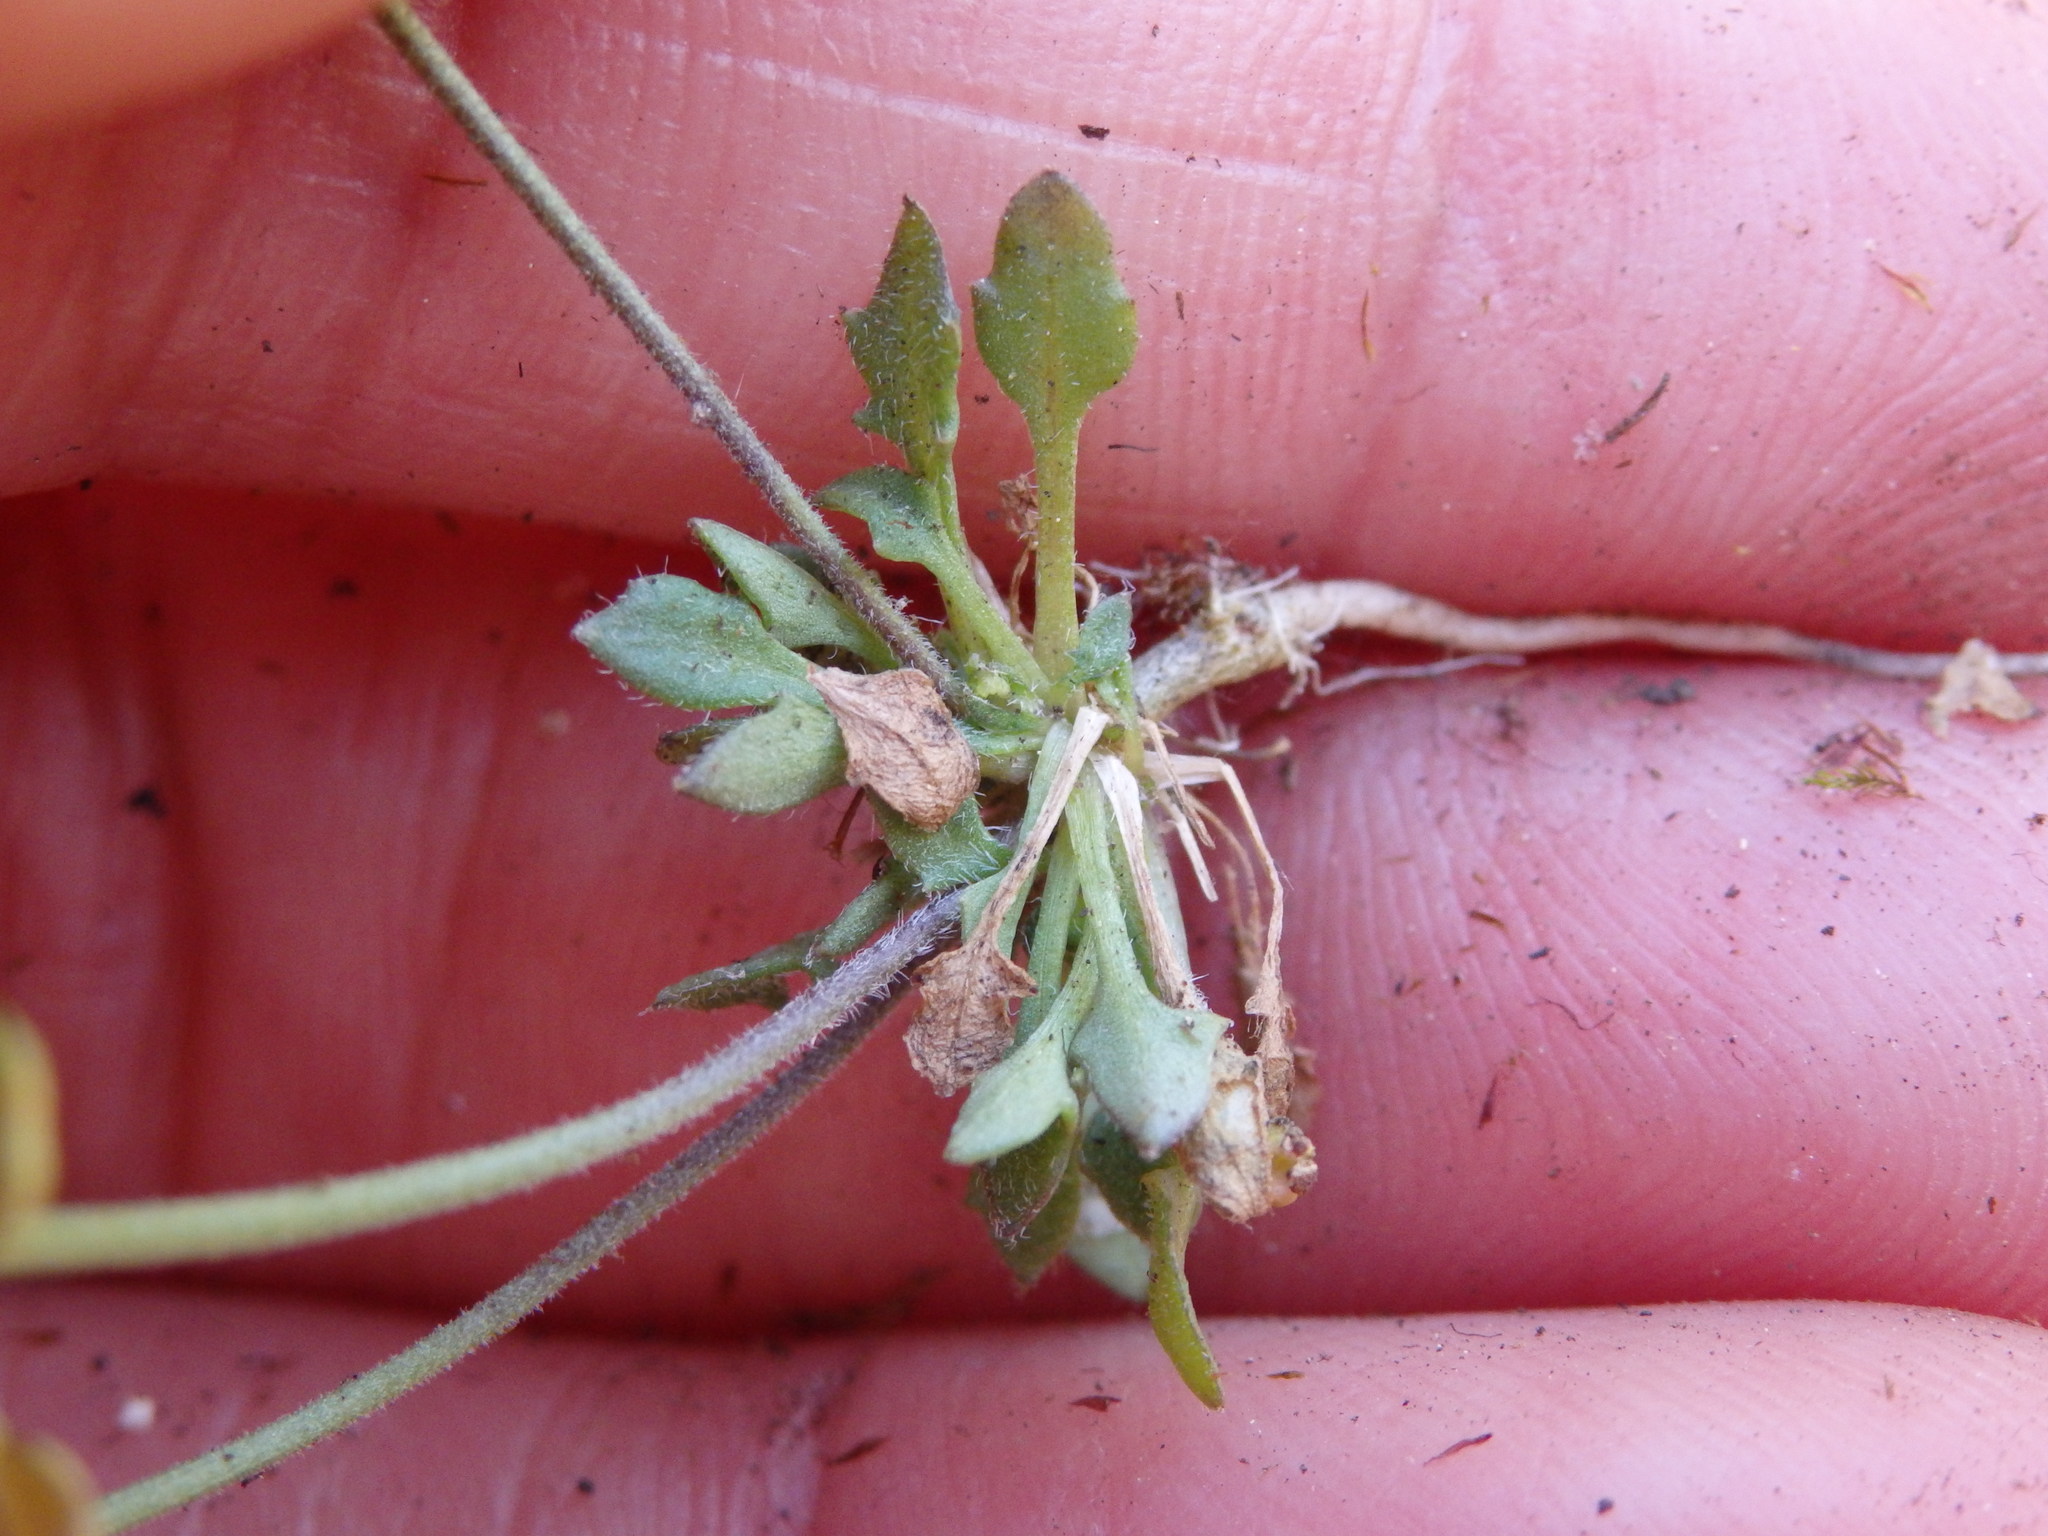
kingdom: Plantae
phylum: Tracheophyta
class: Magnoliopsida
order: Brassicales
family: Brassicaceae
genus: Teesdalia
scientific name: Teesdalia nudicaulis
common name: Shepherd's cress
